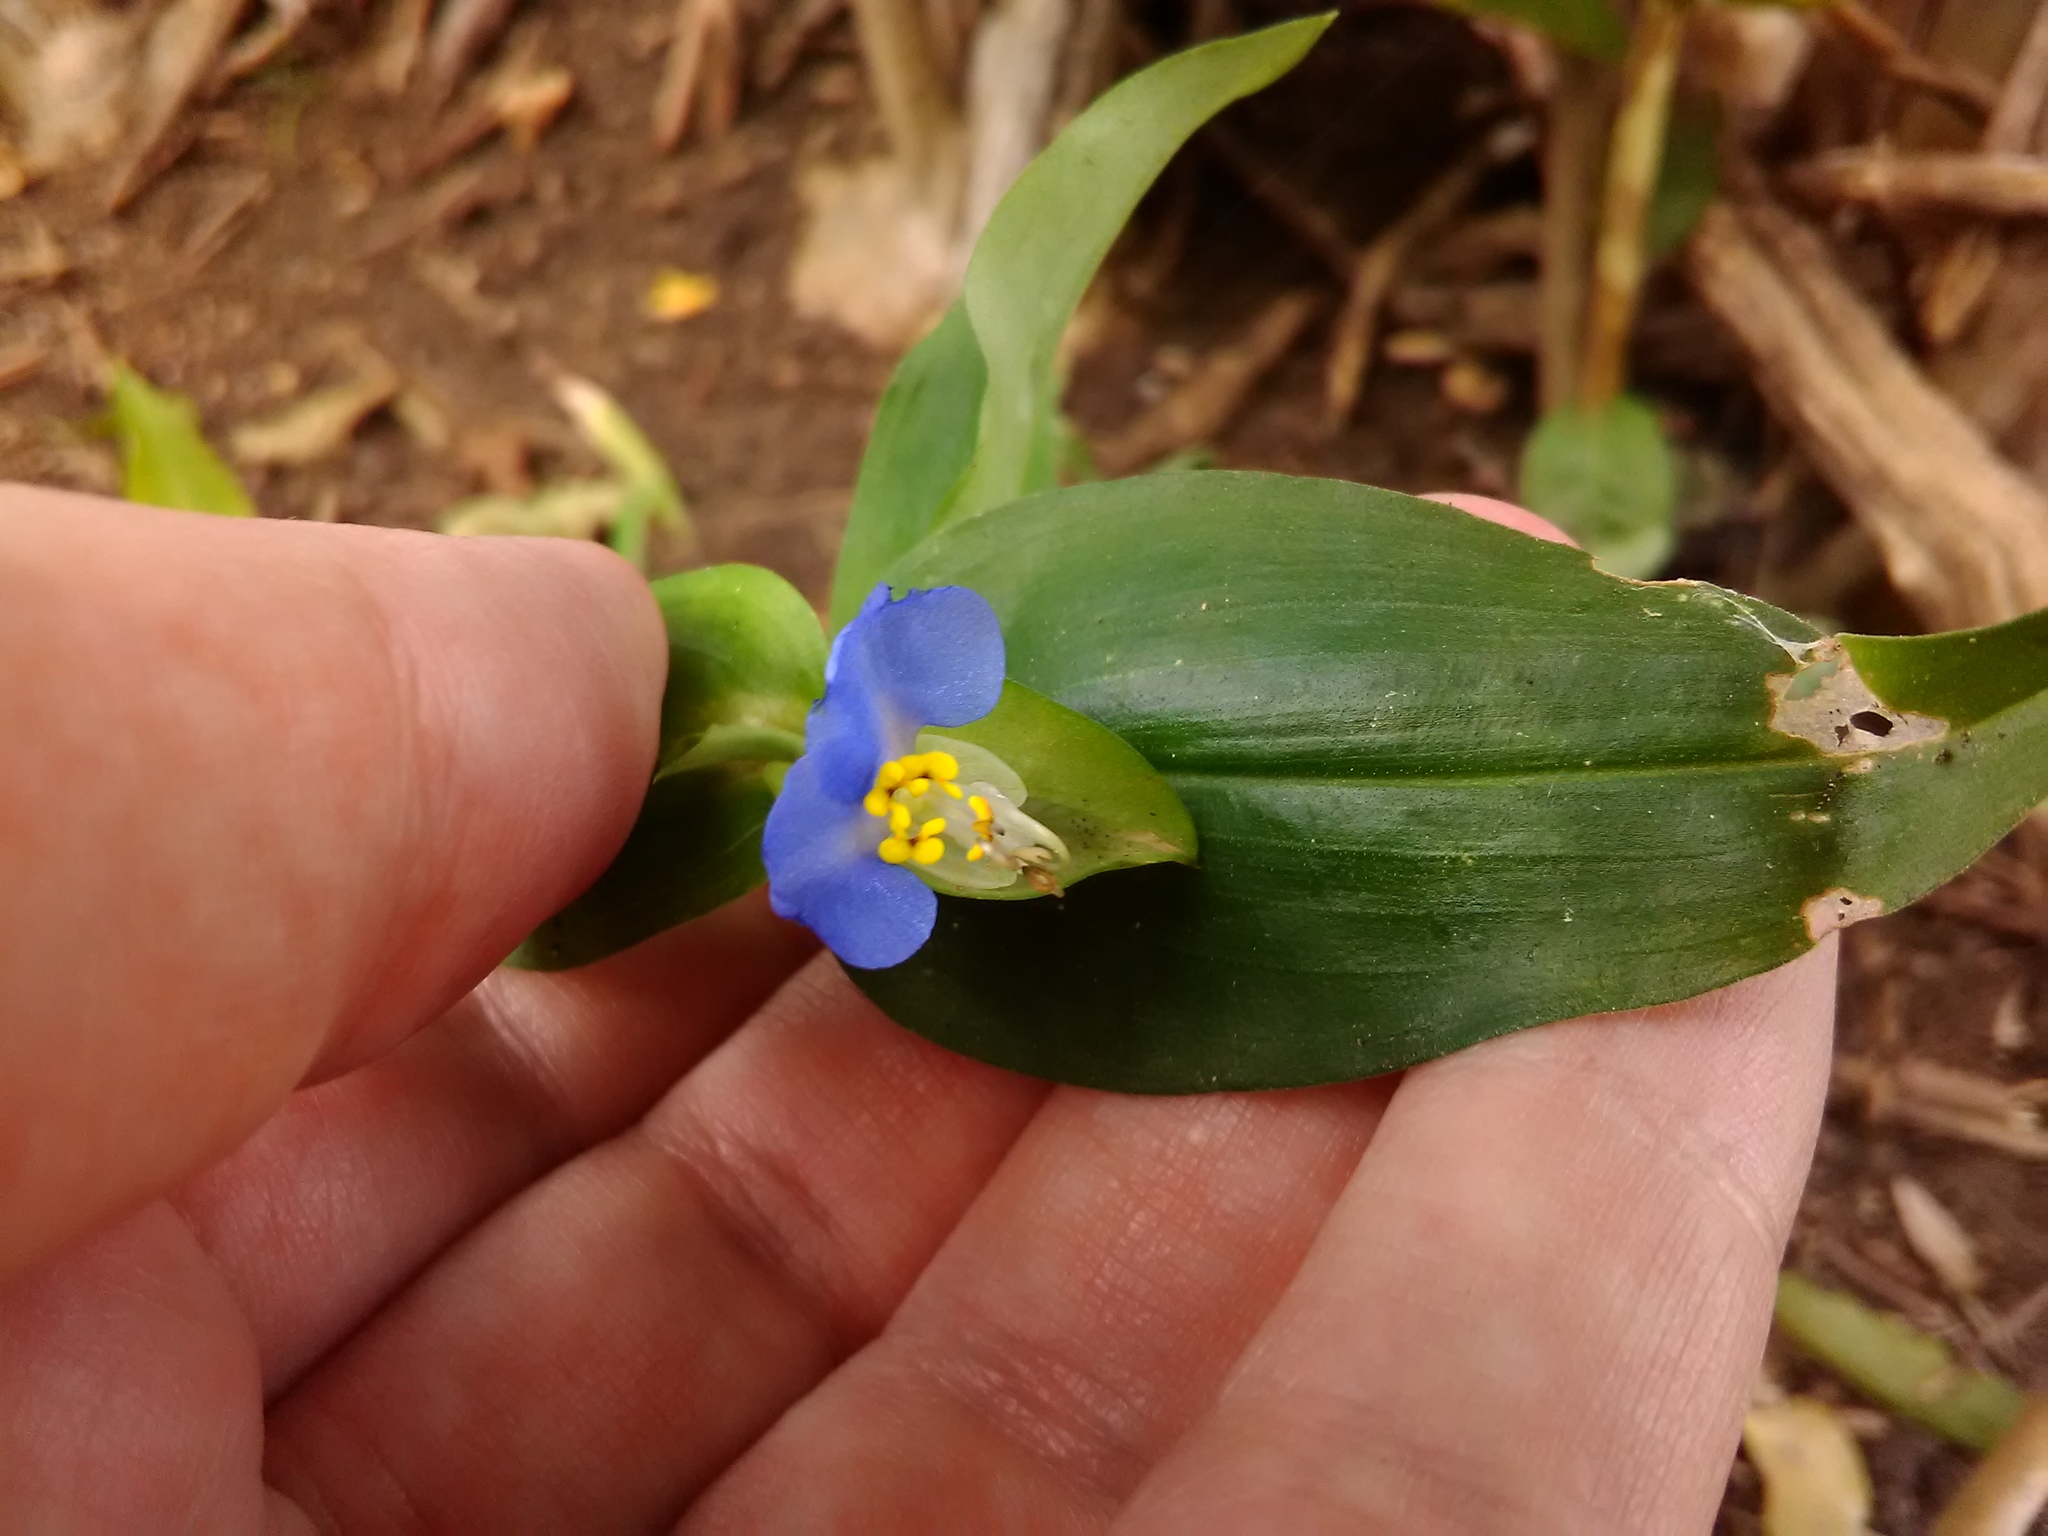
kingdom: Plantae
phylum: Tracheophyta
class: Liliopsida
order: Commelinales
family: Commelinaceae
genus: Commelina
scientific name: Commelina communis
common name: Asiatic dayflower
